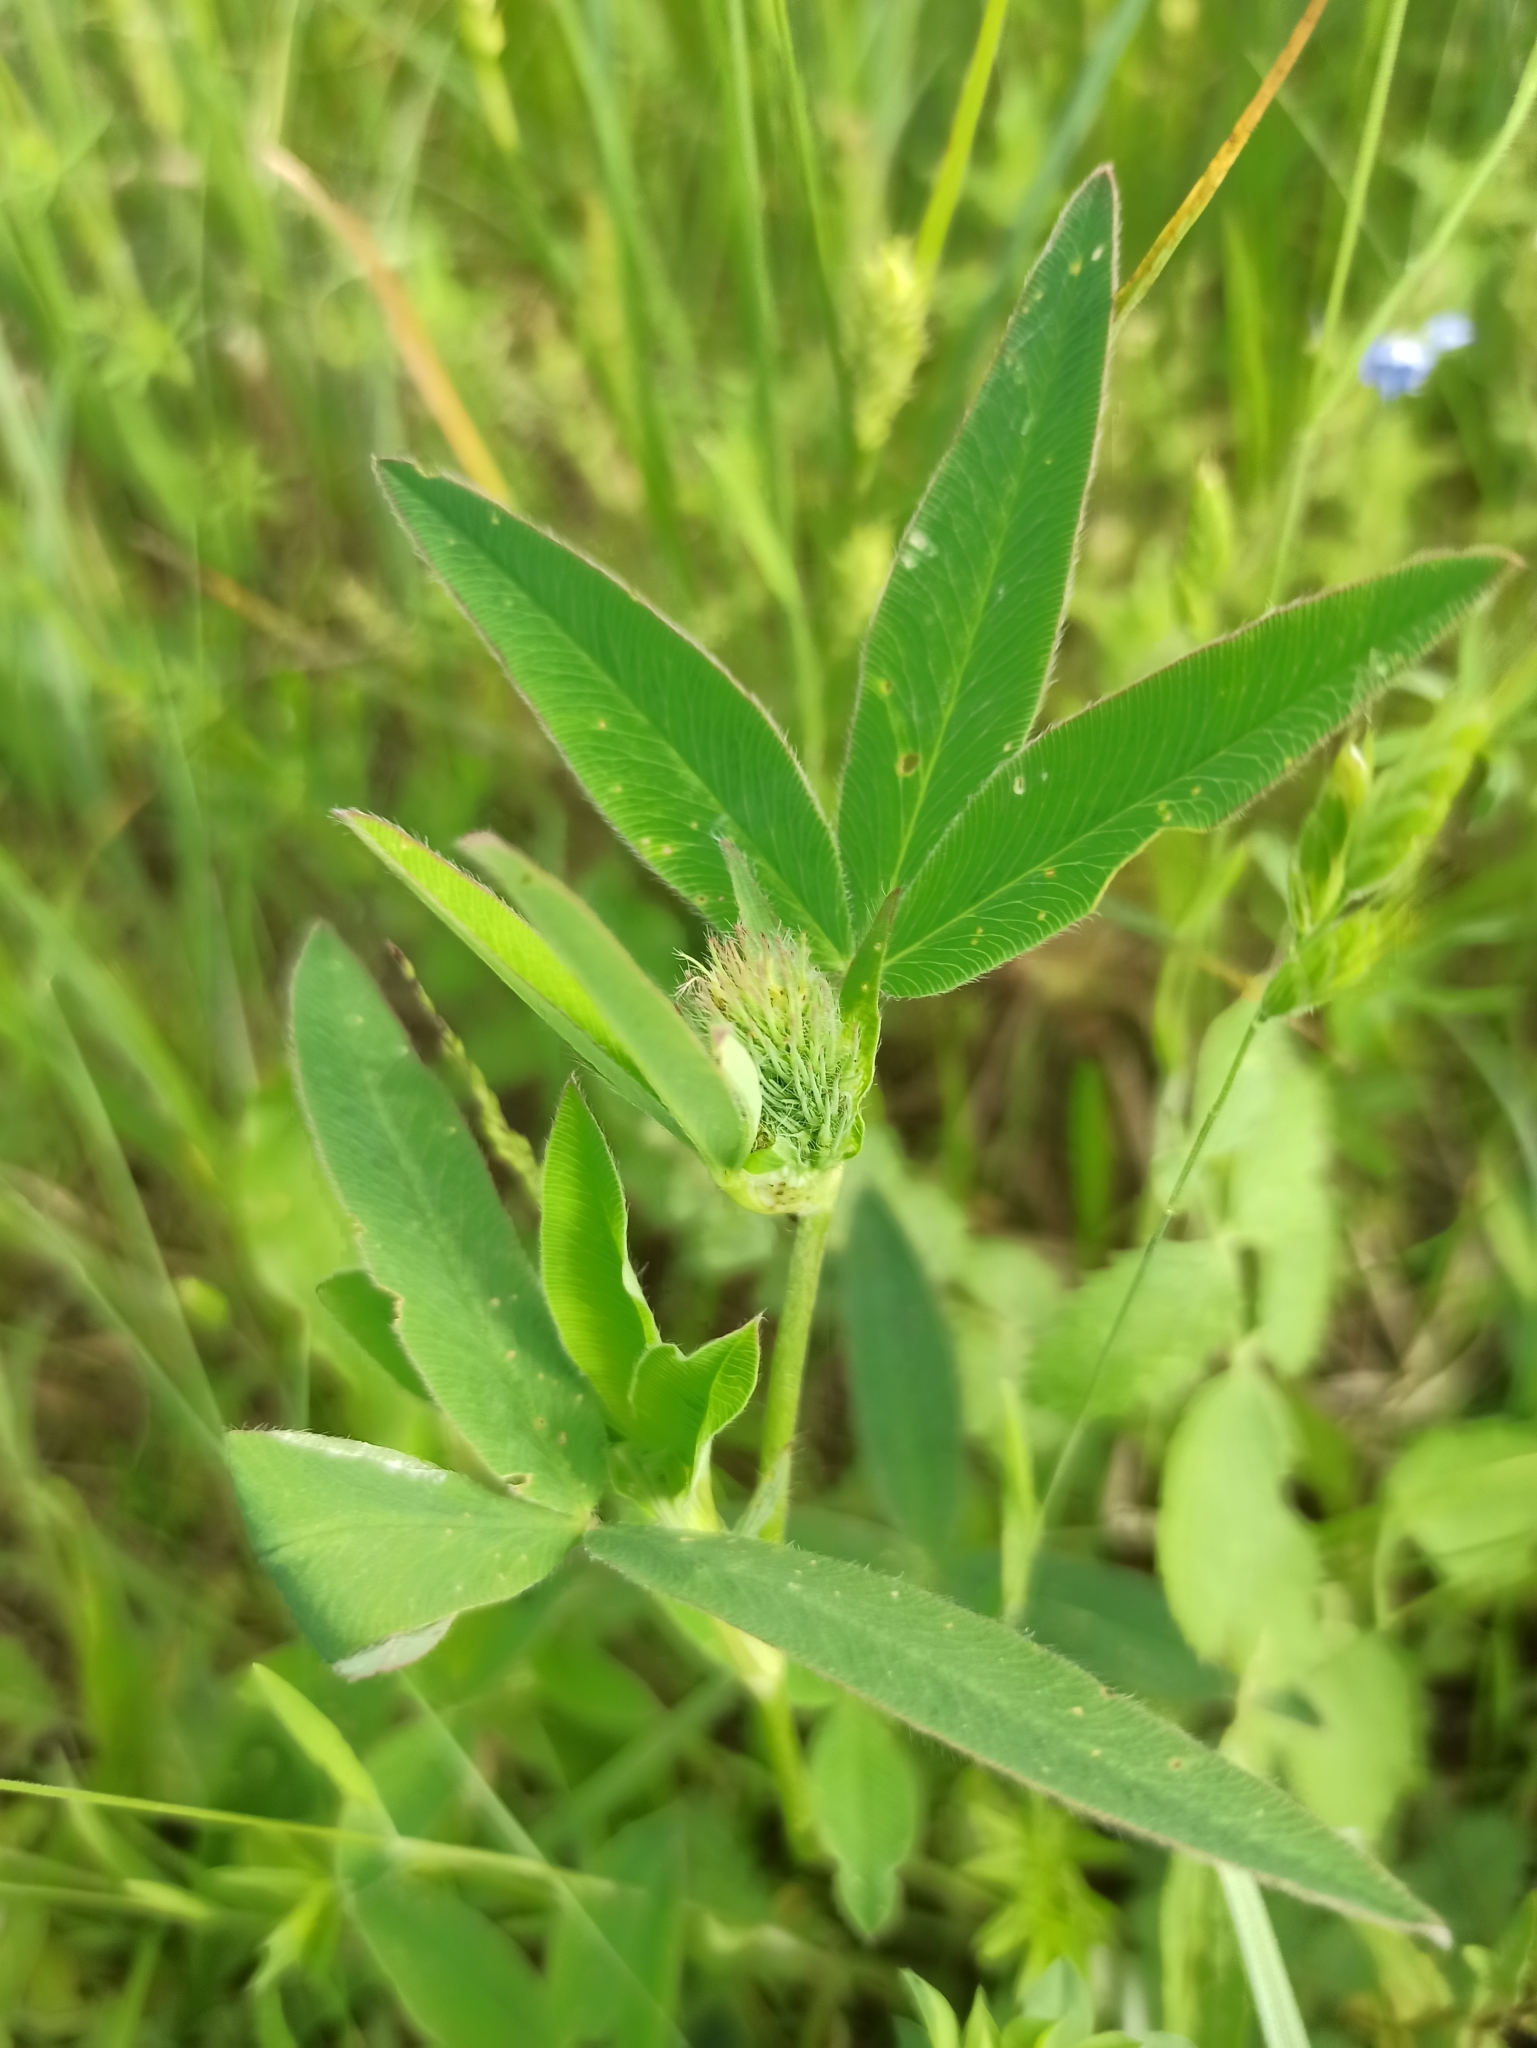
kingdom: Plantae
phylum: Tracheophyta
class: Magnoliopsida
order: Fabales
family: Fabaceae
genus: Trifolium
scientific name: Trifolium medium
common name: Zigzag clover
